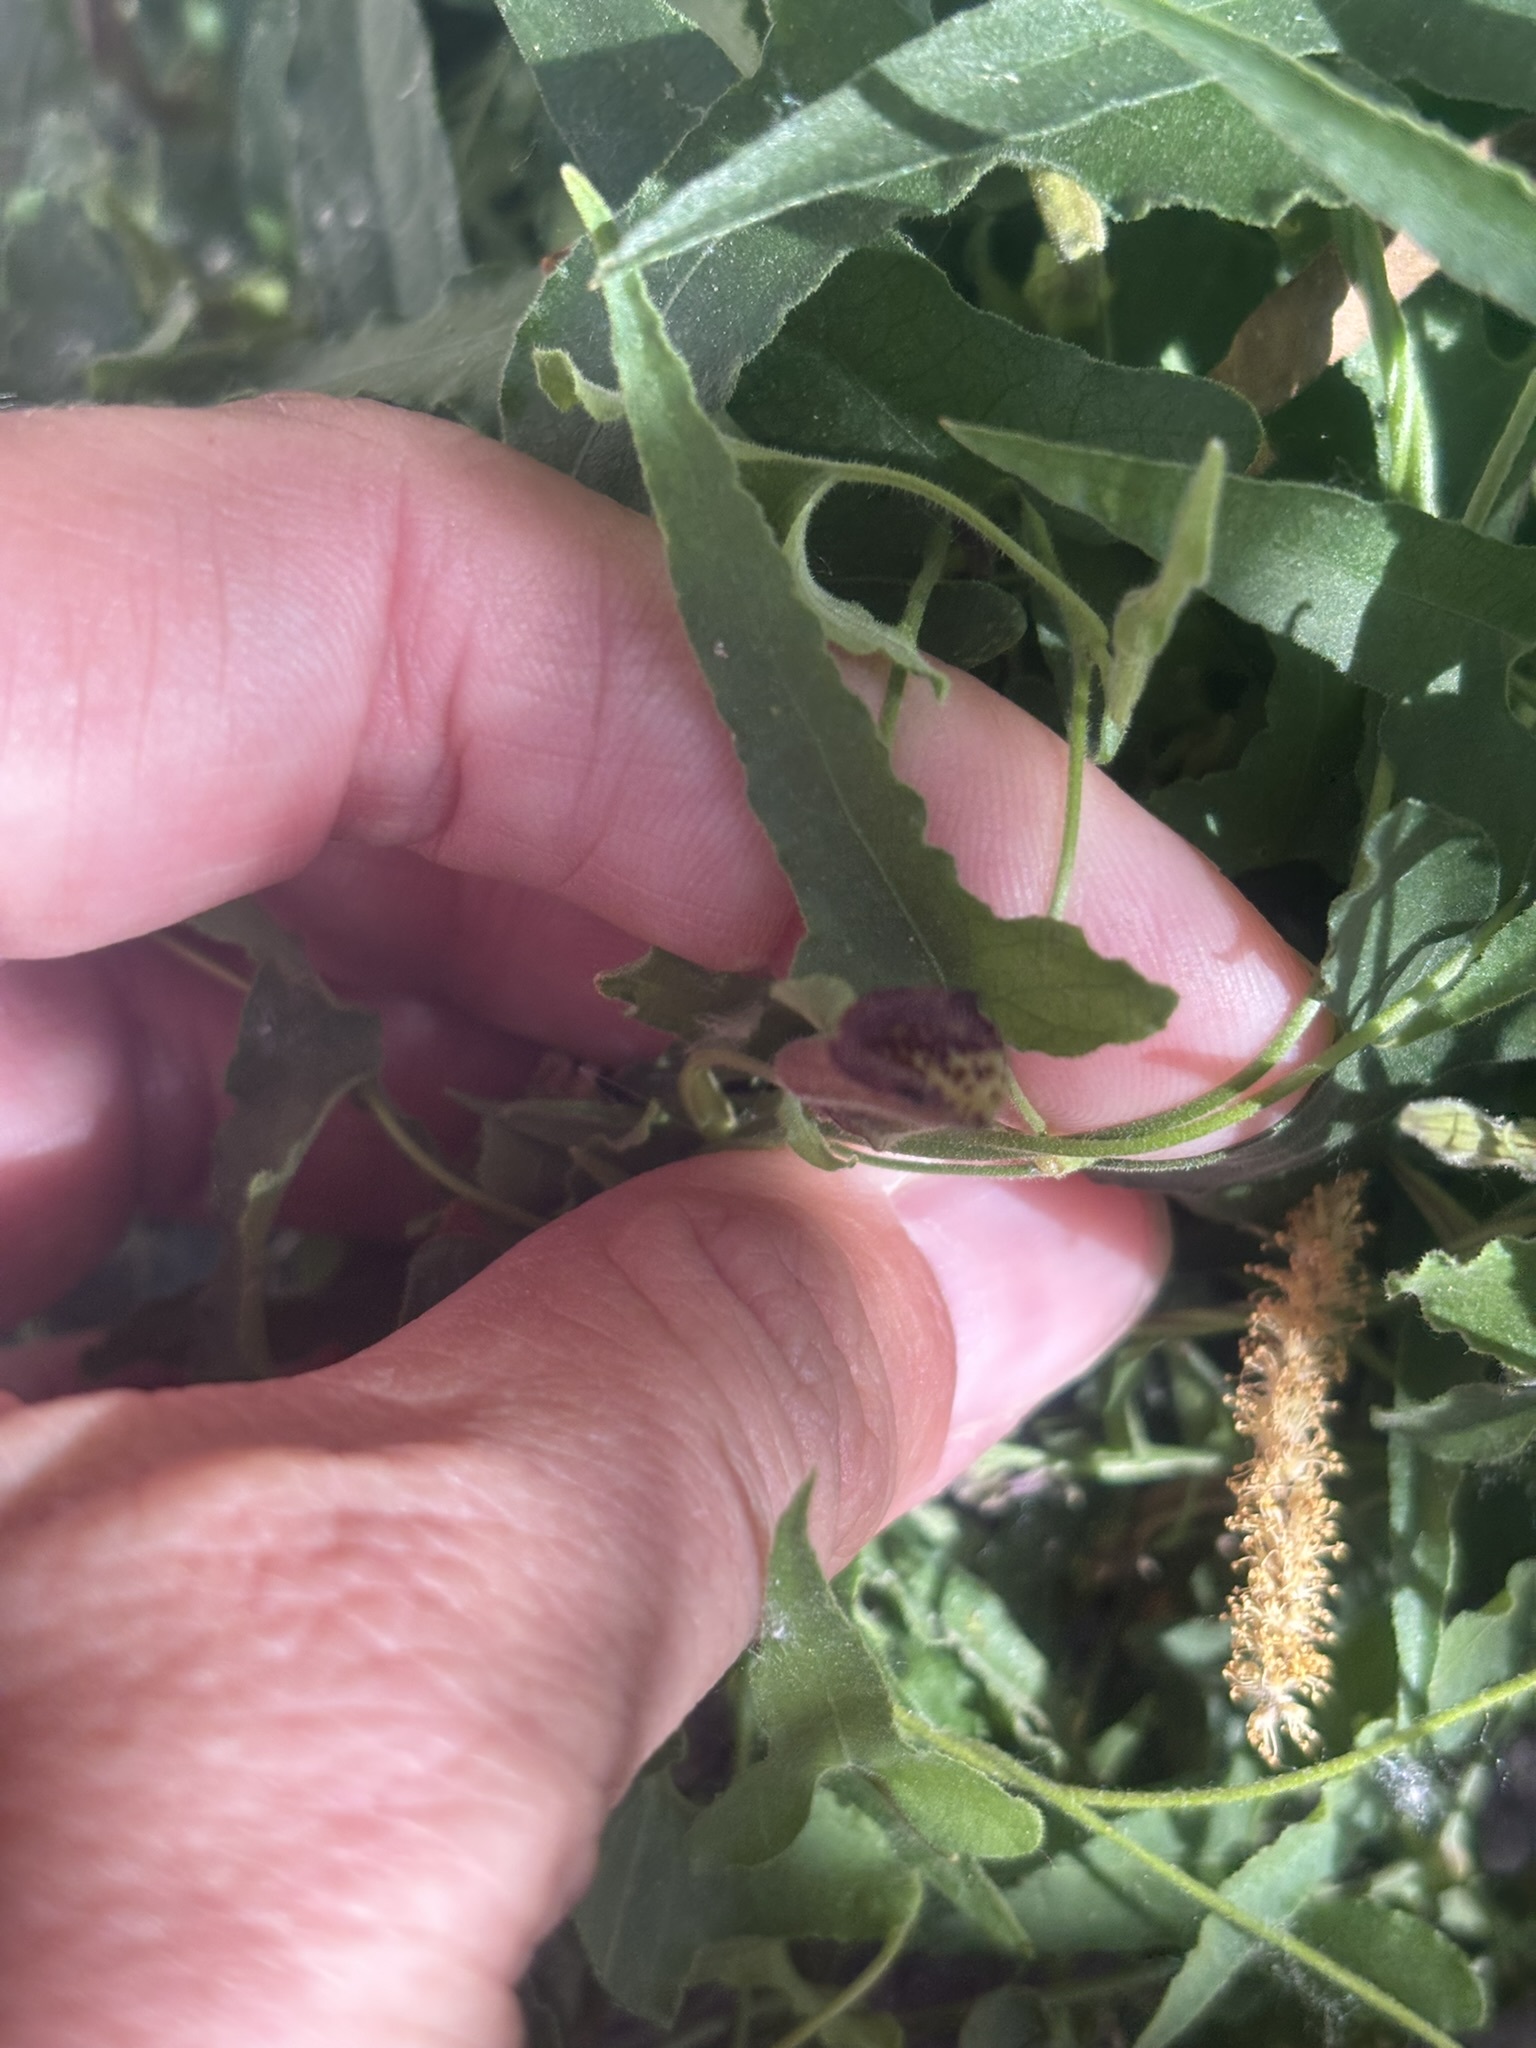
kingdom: Plantae
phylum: Tracheophyta
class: Magnoliopsida
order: Piperales
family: Aristolochiaceae
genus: Aristolochia
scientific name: Aristolochia watsonii
